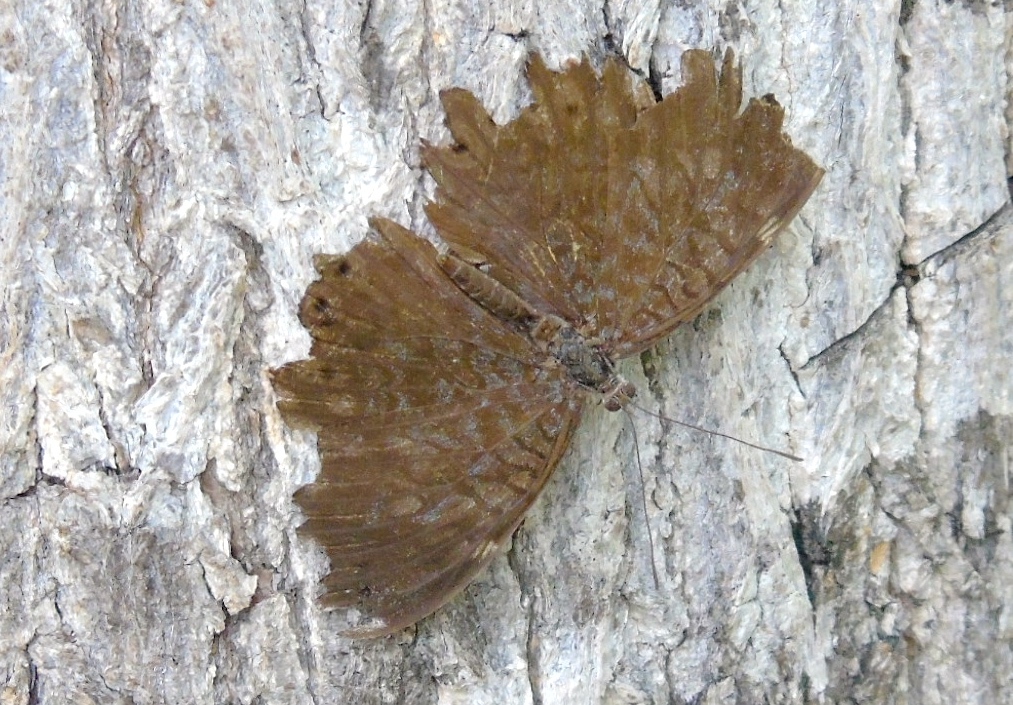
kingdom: Animalia
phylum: Arthropoda
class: Insecta
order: Lepidoptera
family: Nymphalidae
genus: Hamadryas
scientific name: Hamadryas lelaps
